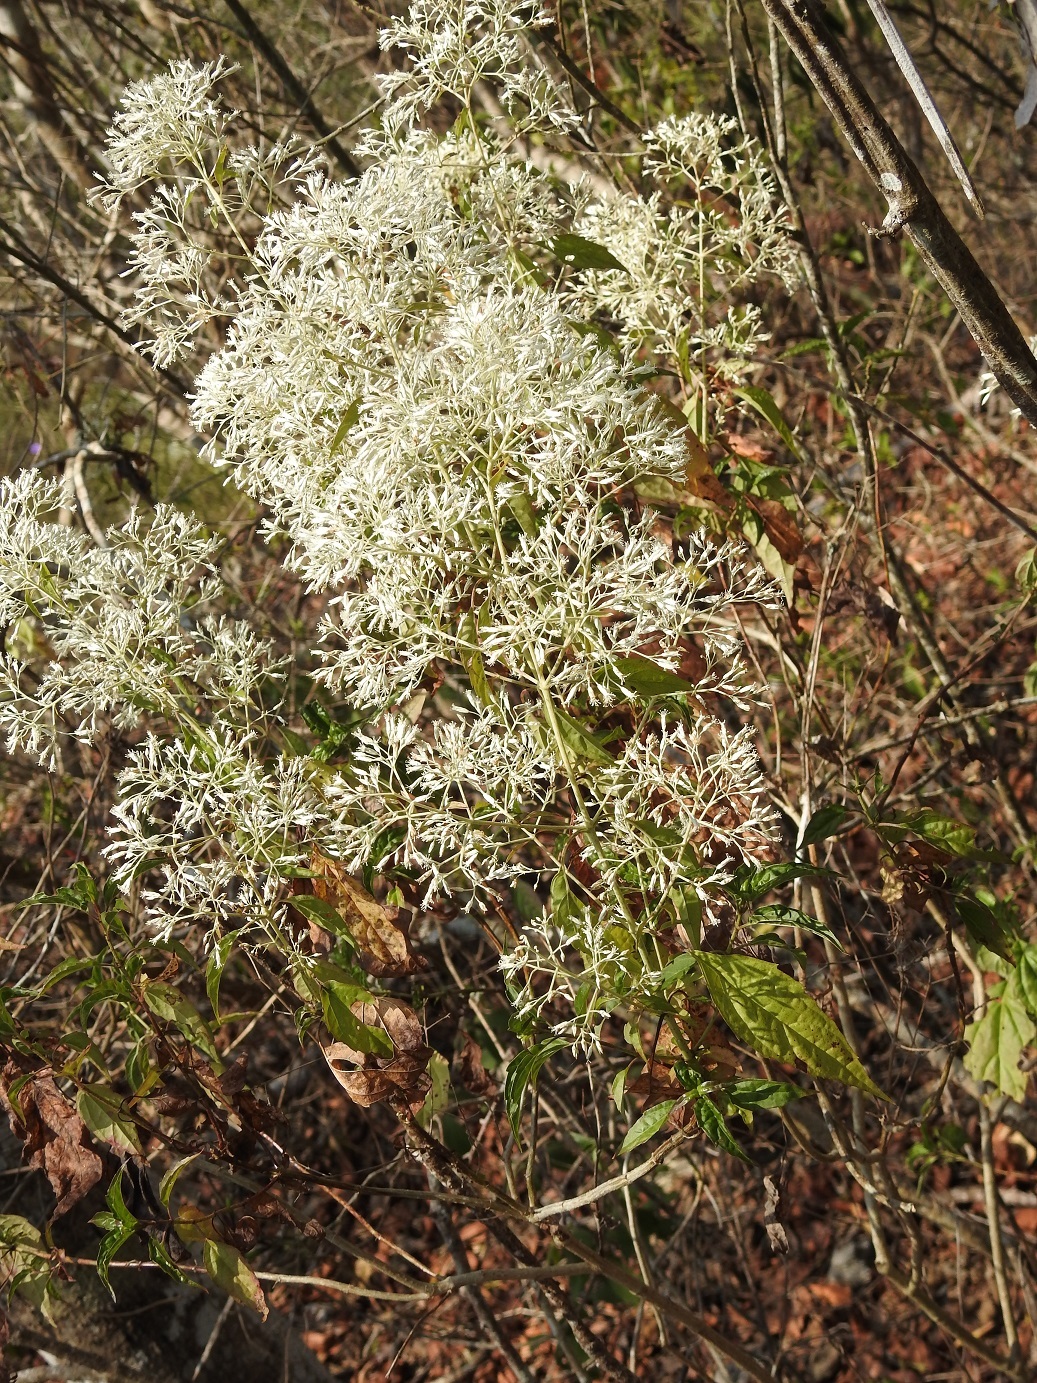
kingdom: Plantae
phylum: Tracheophyta
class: Magnoliopsida
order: Asterales
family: Asteraceae
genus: Fleischmanniopsis
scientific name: Fleischmanniopsis leucocephala
